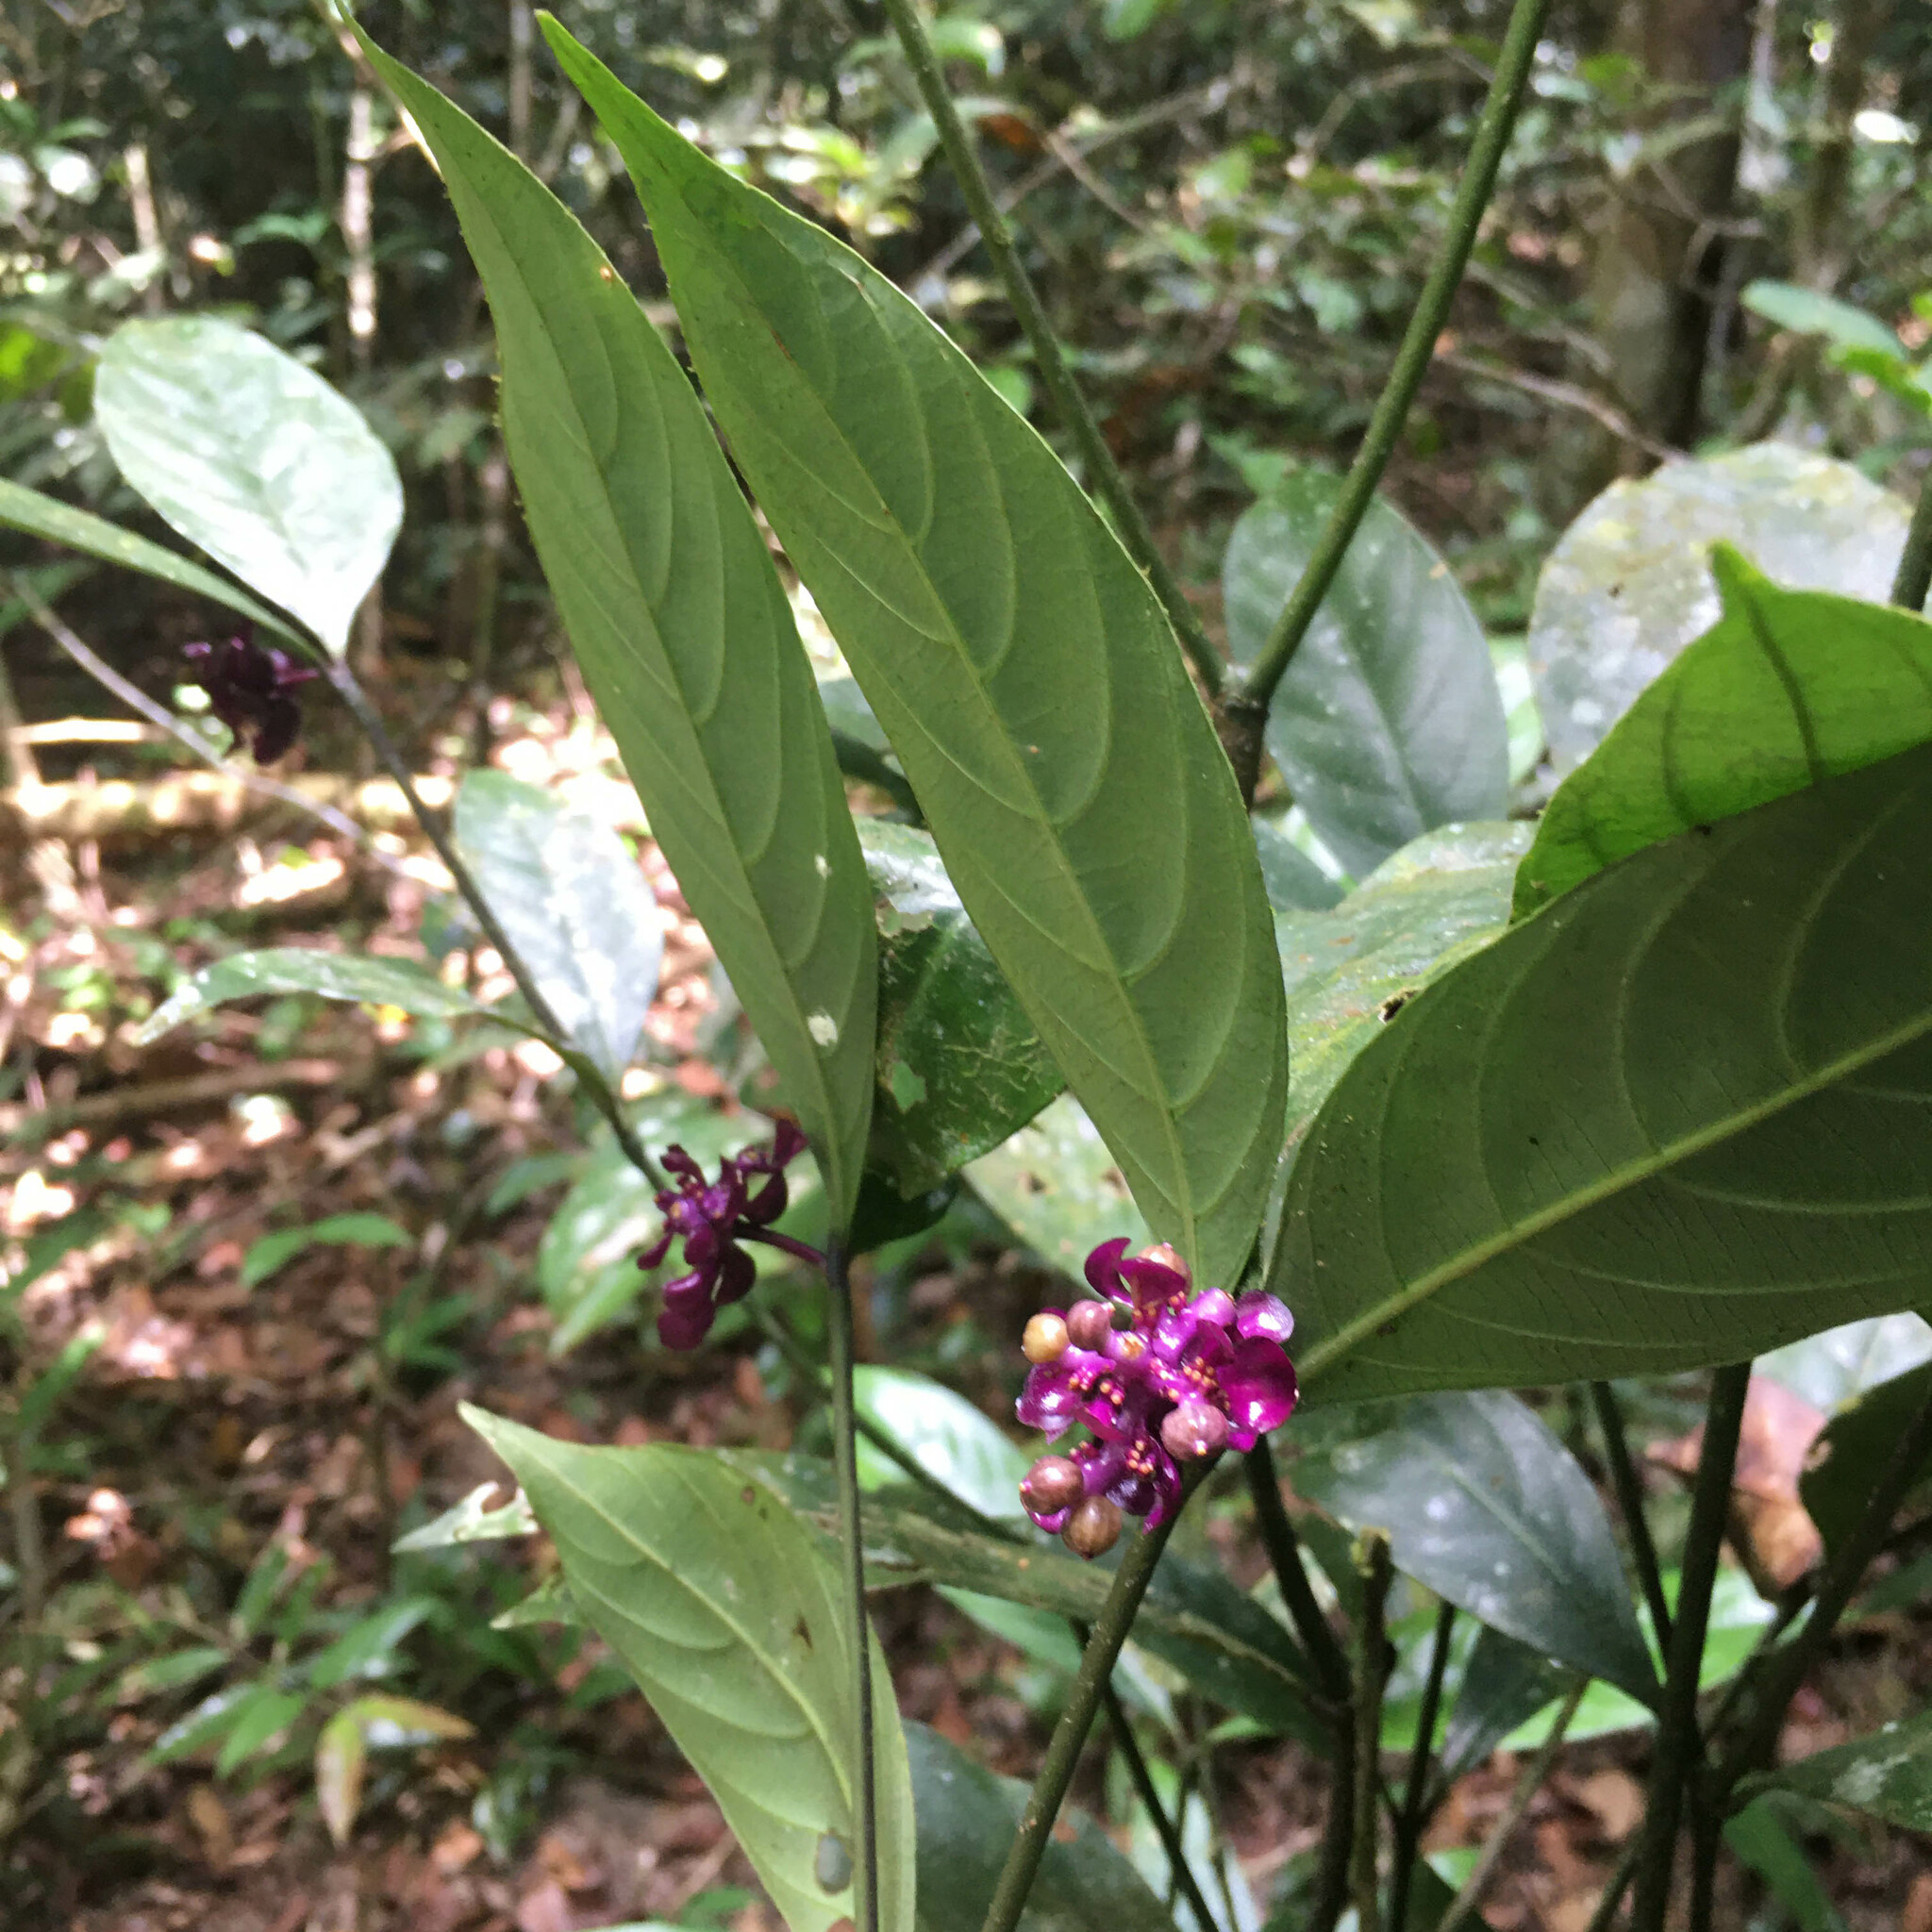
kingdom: Plantae
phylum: Tracheophyta
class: Magnoliopsida
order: Gentianales
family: Rubiaceae
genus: Palicourea
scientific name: Palicourea dichotoma
